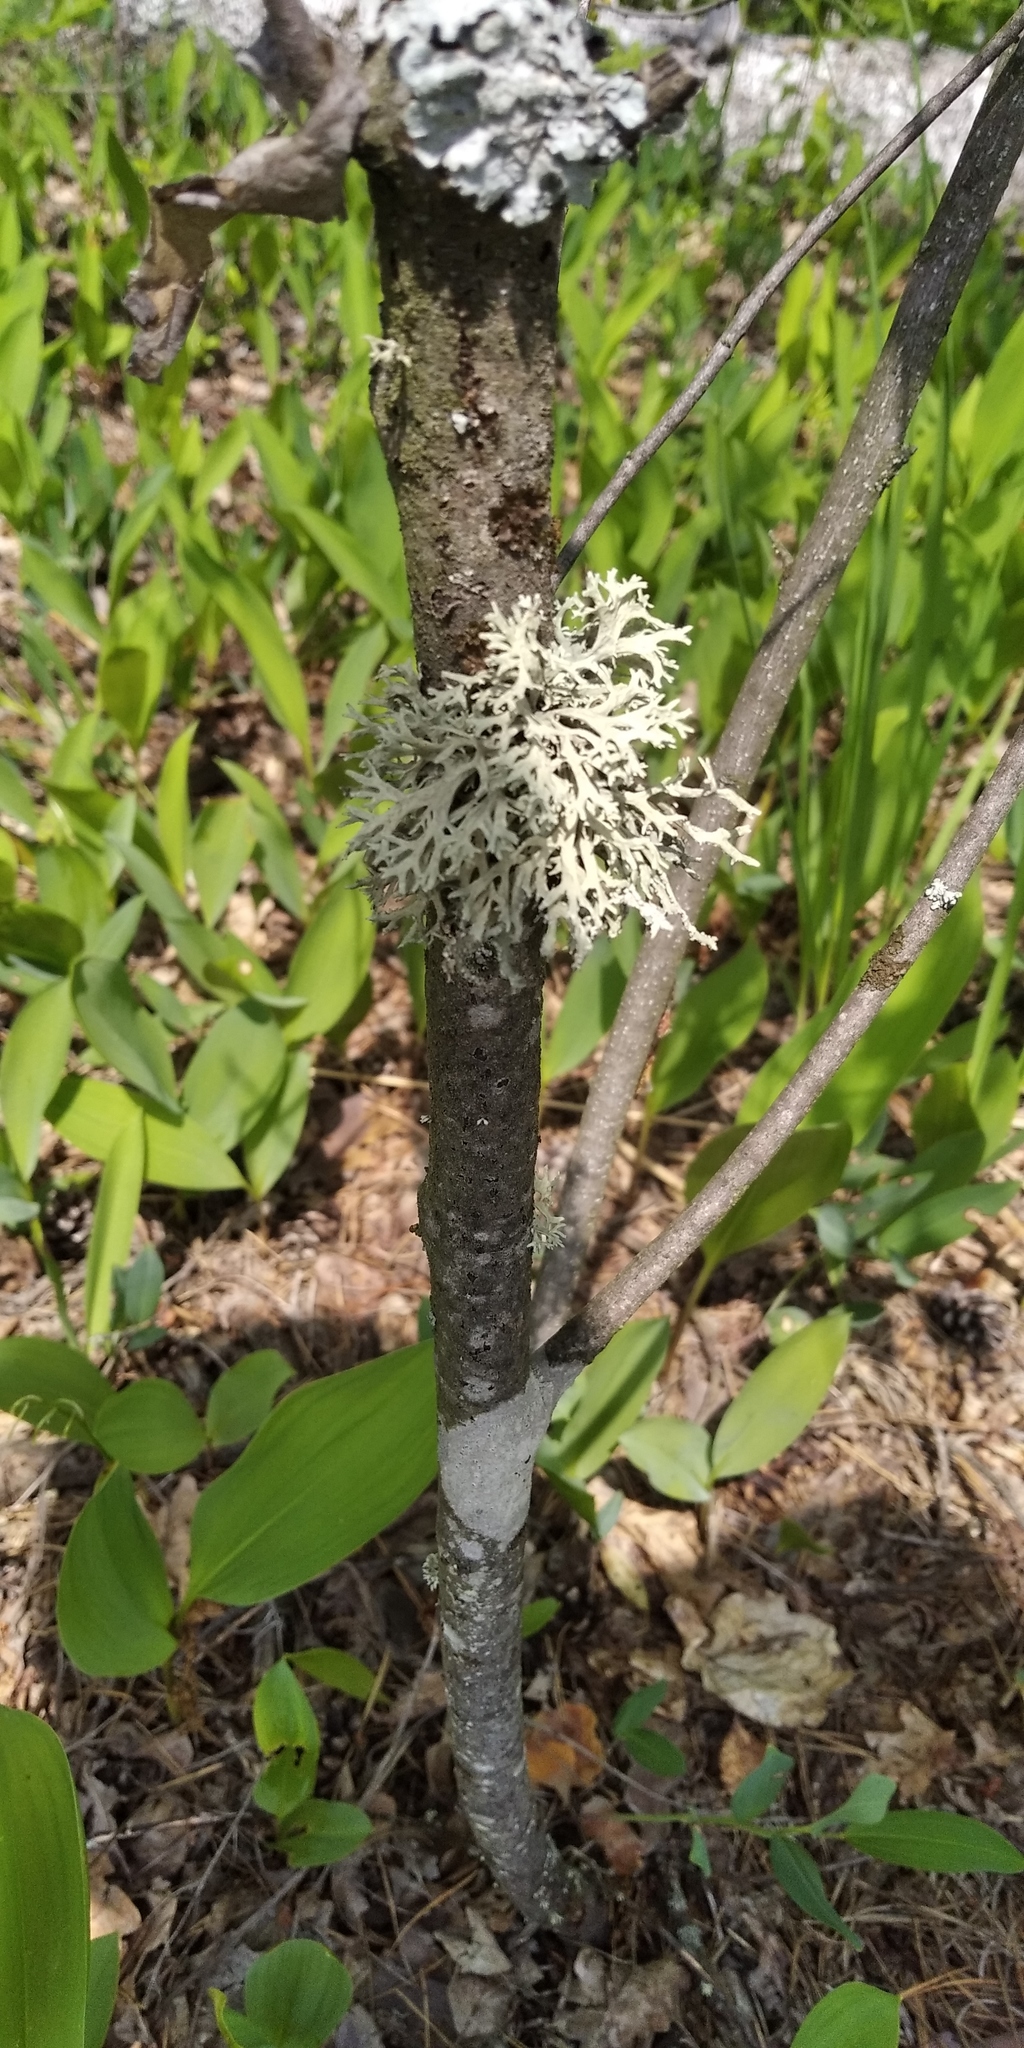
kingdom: Fungi
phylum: Ascomycota
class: Lecanoromycetes
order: Lecanorales
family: Parmeliaceae
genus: Evernia
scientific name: Evernia prunastri
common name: Oak moss
